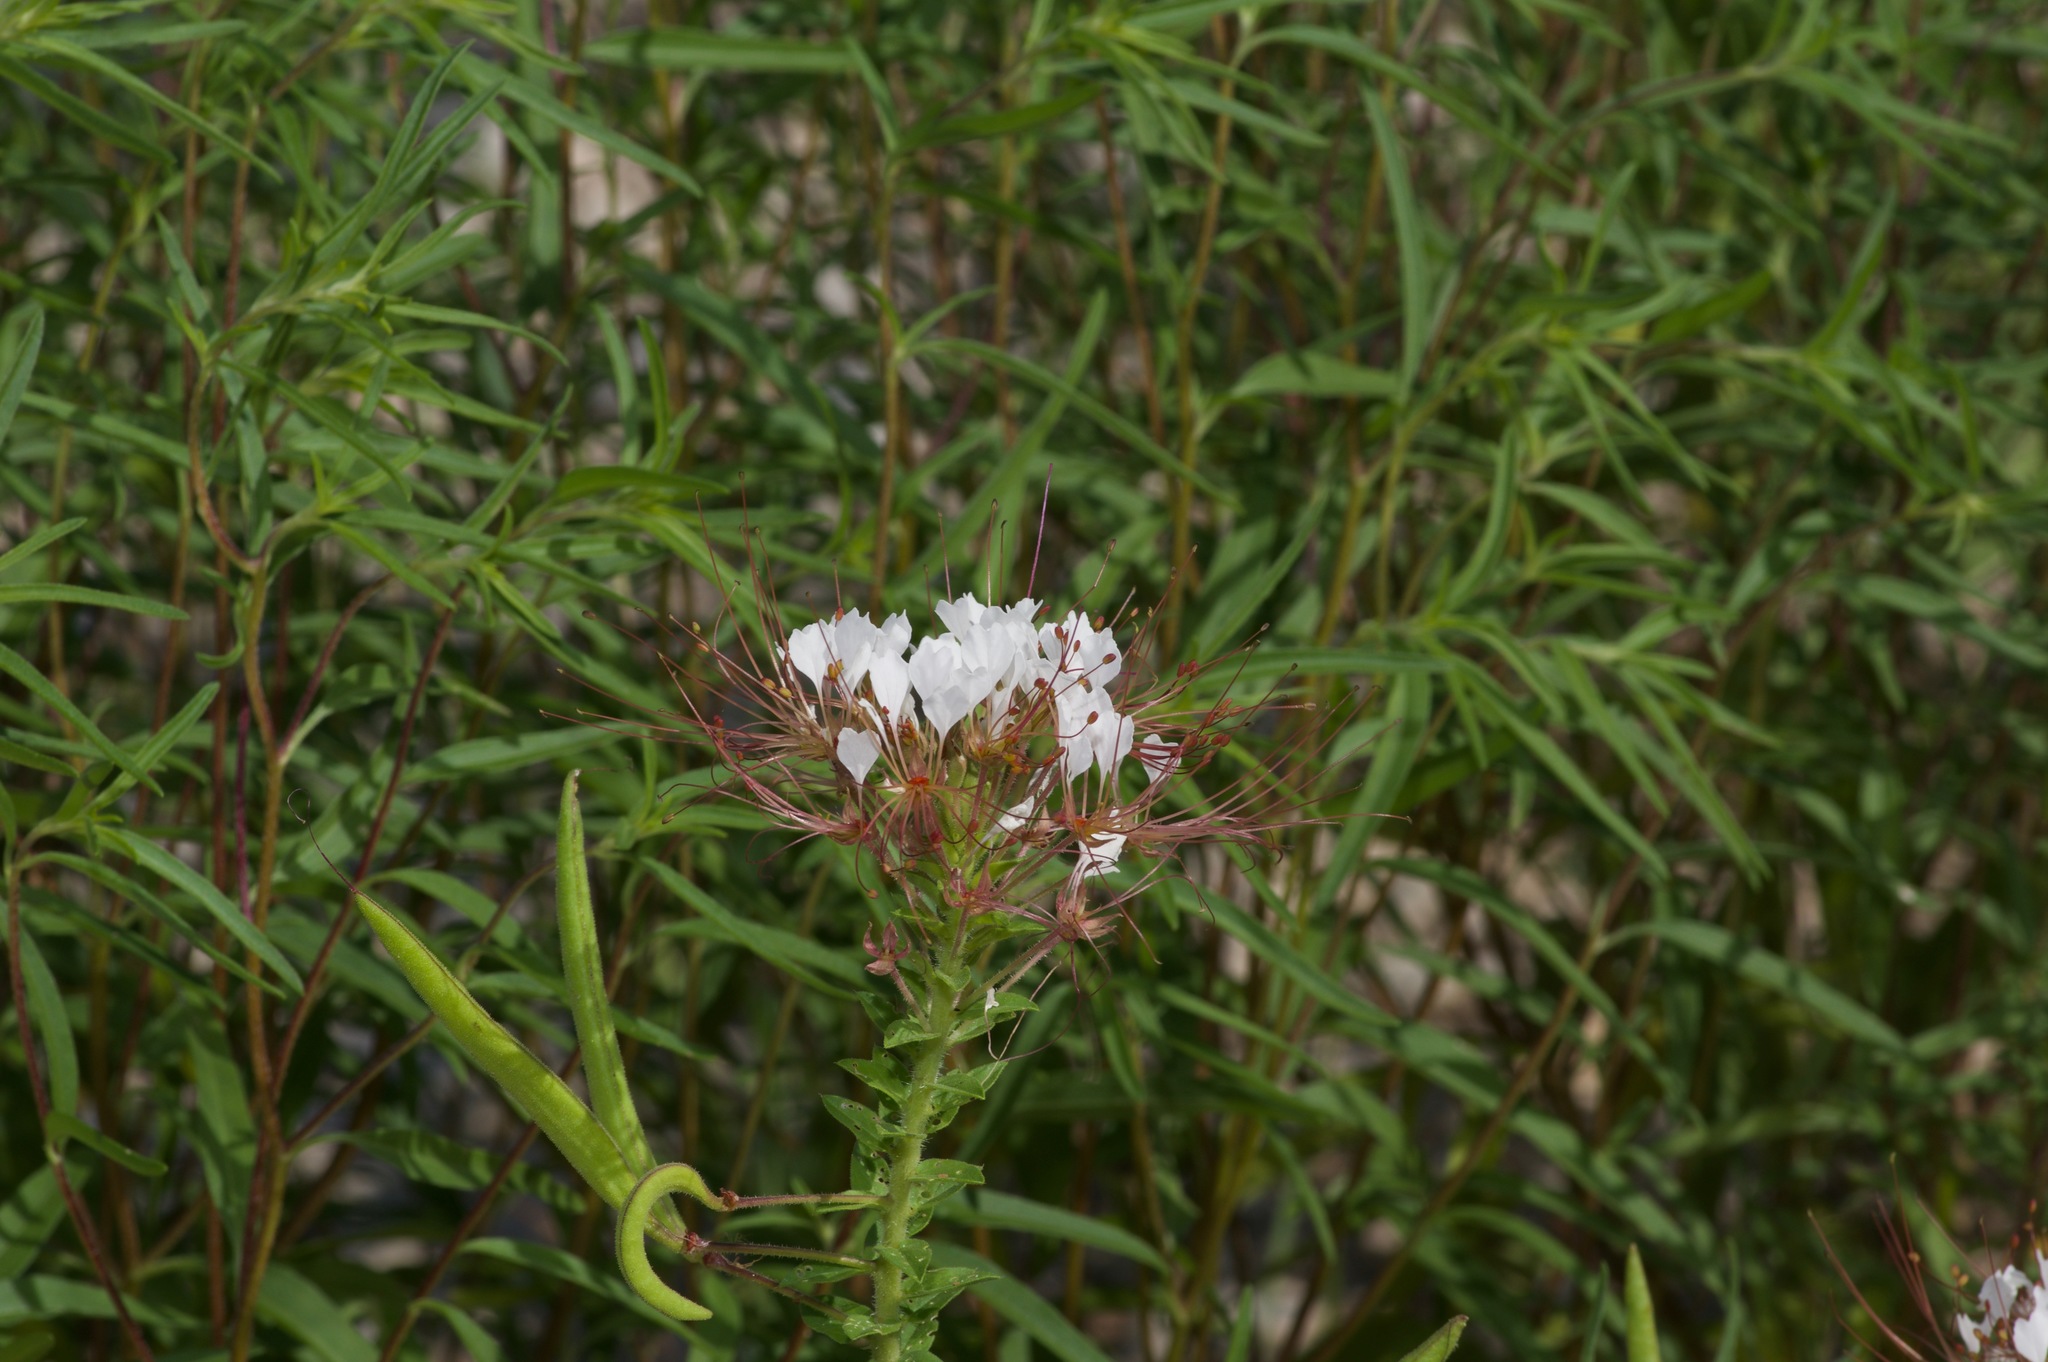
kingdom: Plantae
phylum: Tracheophyta
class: Magnoliopsida
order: Brassicales
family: Cleomaceae
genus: Polanisia
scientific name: Polanisia dodecandra
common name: Clammyweed
